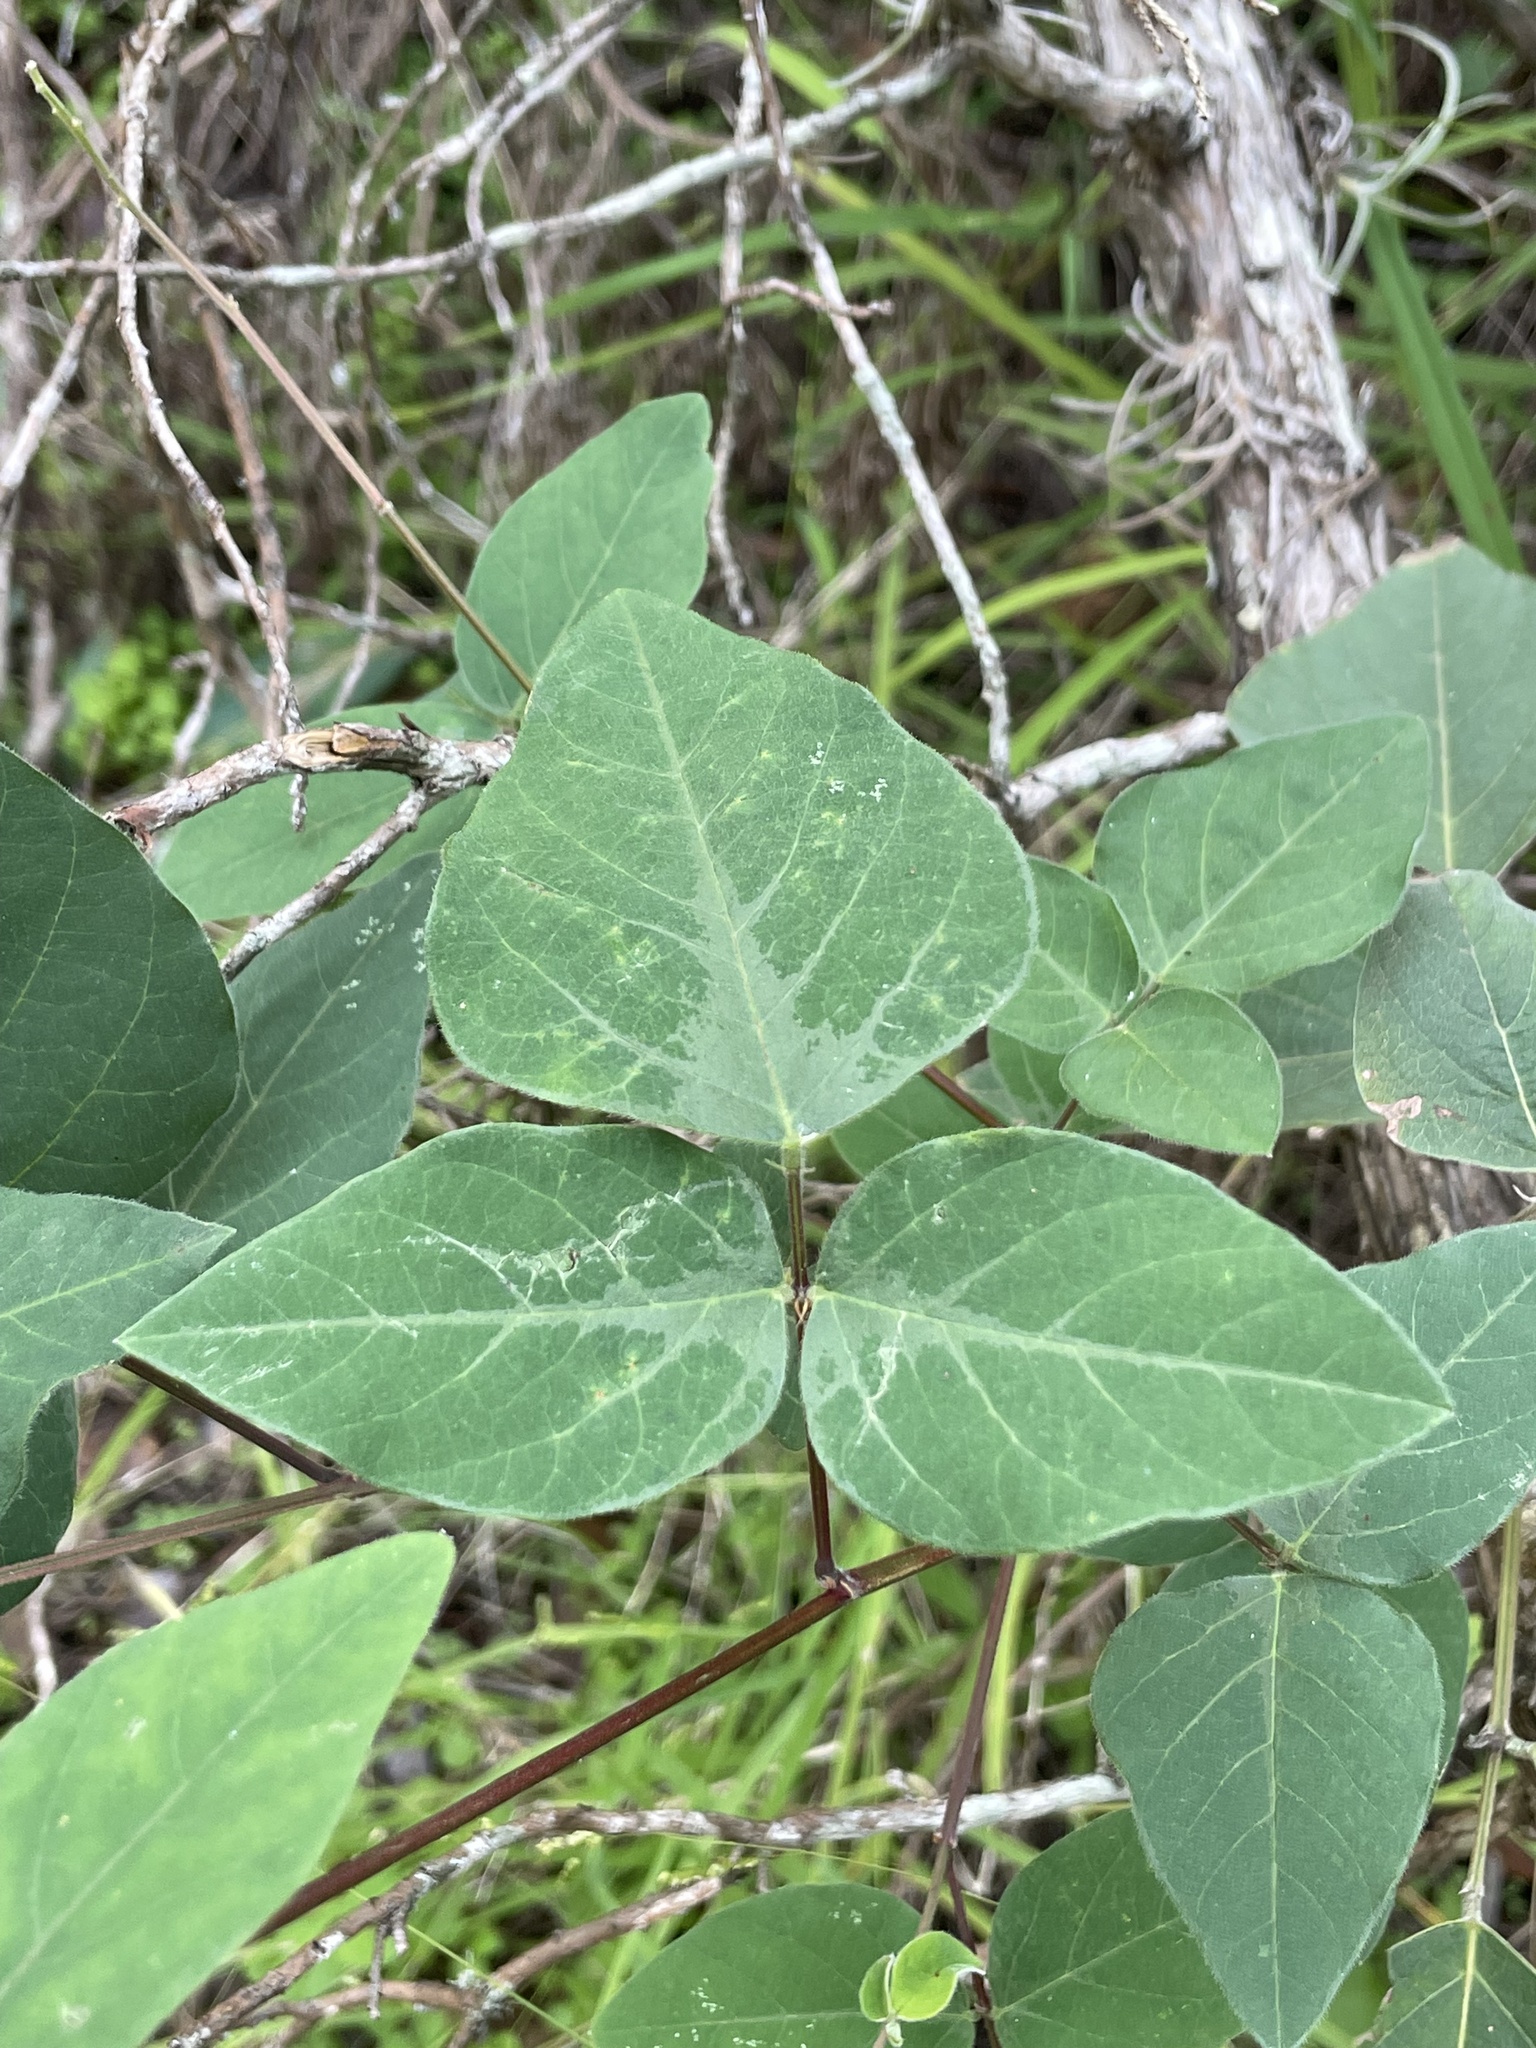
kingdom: Plantae
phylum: Tracheophyta
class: Magnoliopsida
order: Fabales
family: Fabaceae
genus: Desmodium
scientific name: Desmodium lindheimeri
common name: Lindheimer's tick-trefoil
